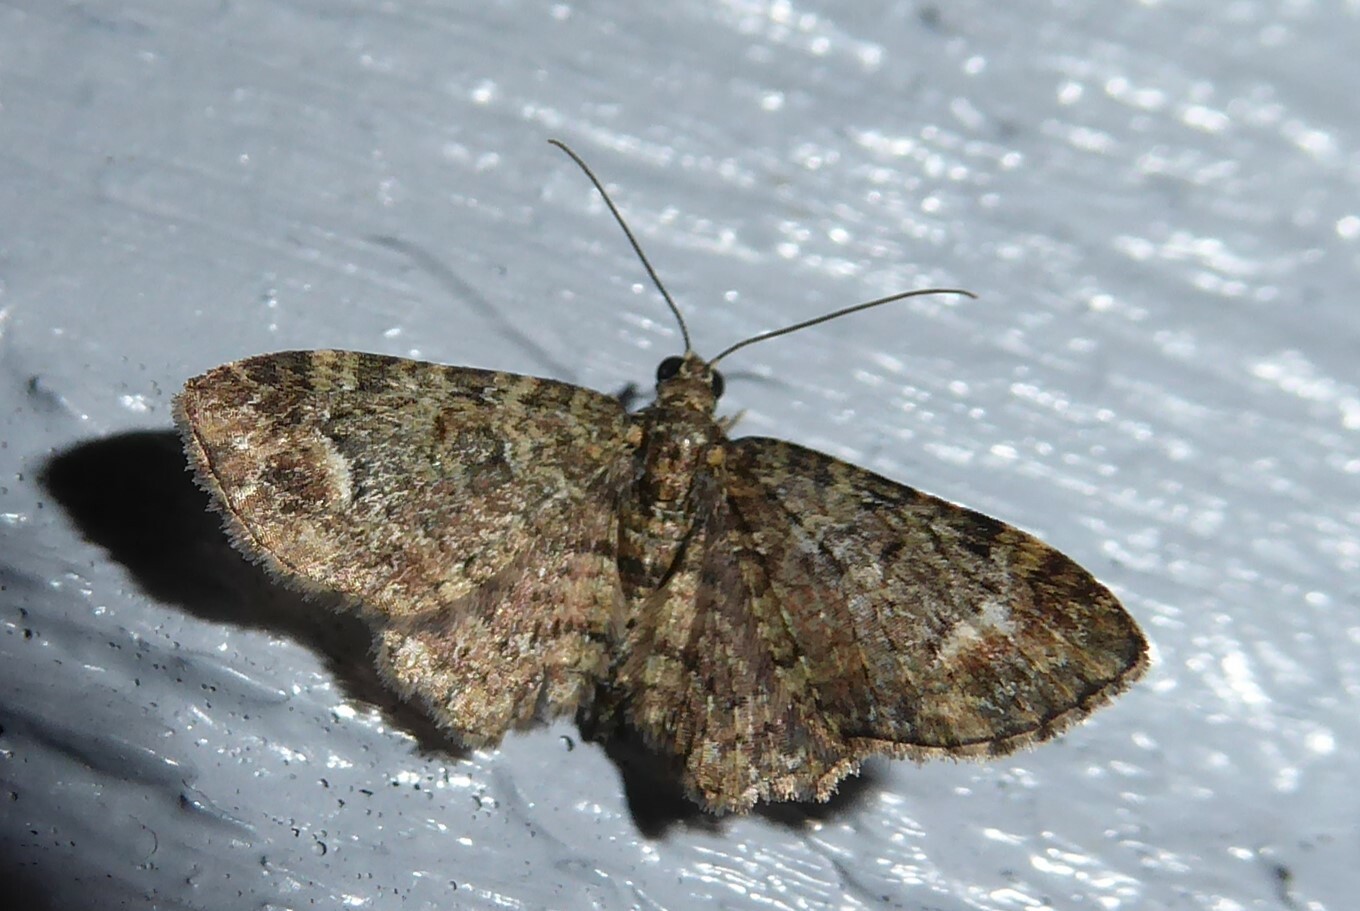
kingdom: Animalia
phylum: Arthropoda
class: Insecta
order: Lepidoptera
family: Geometridae
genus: Pasiphilodes
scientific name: Pasiphilodes testulata
